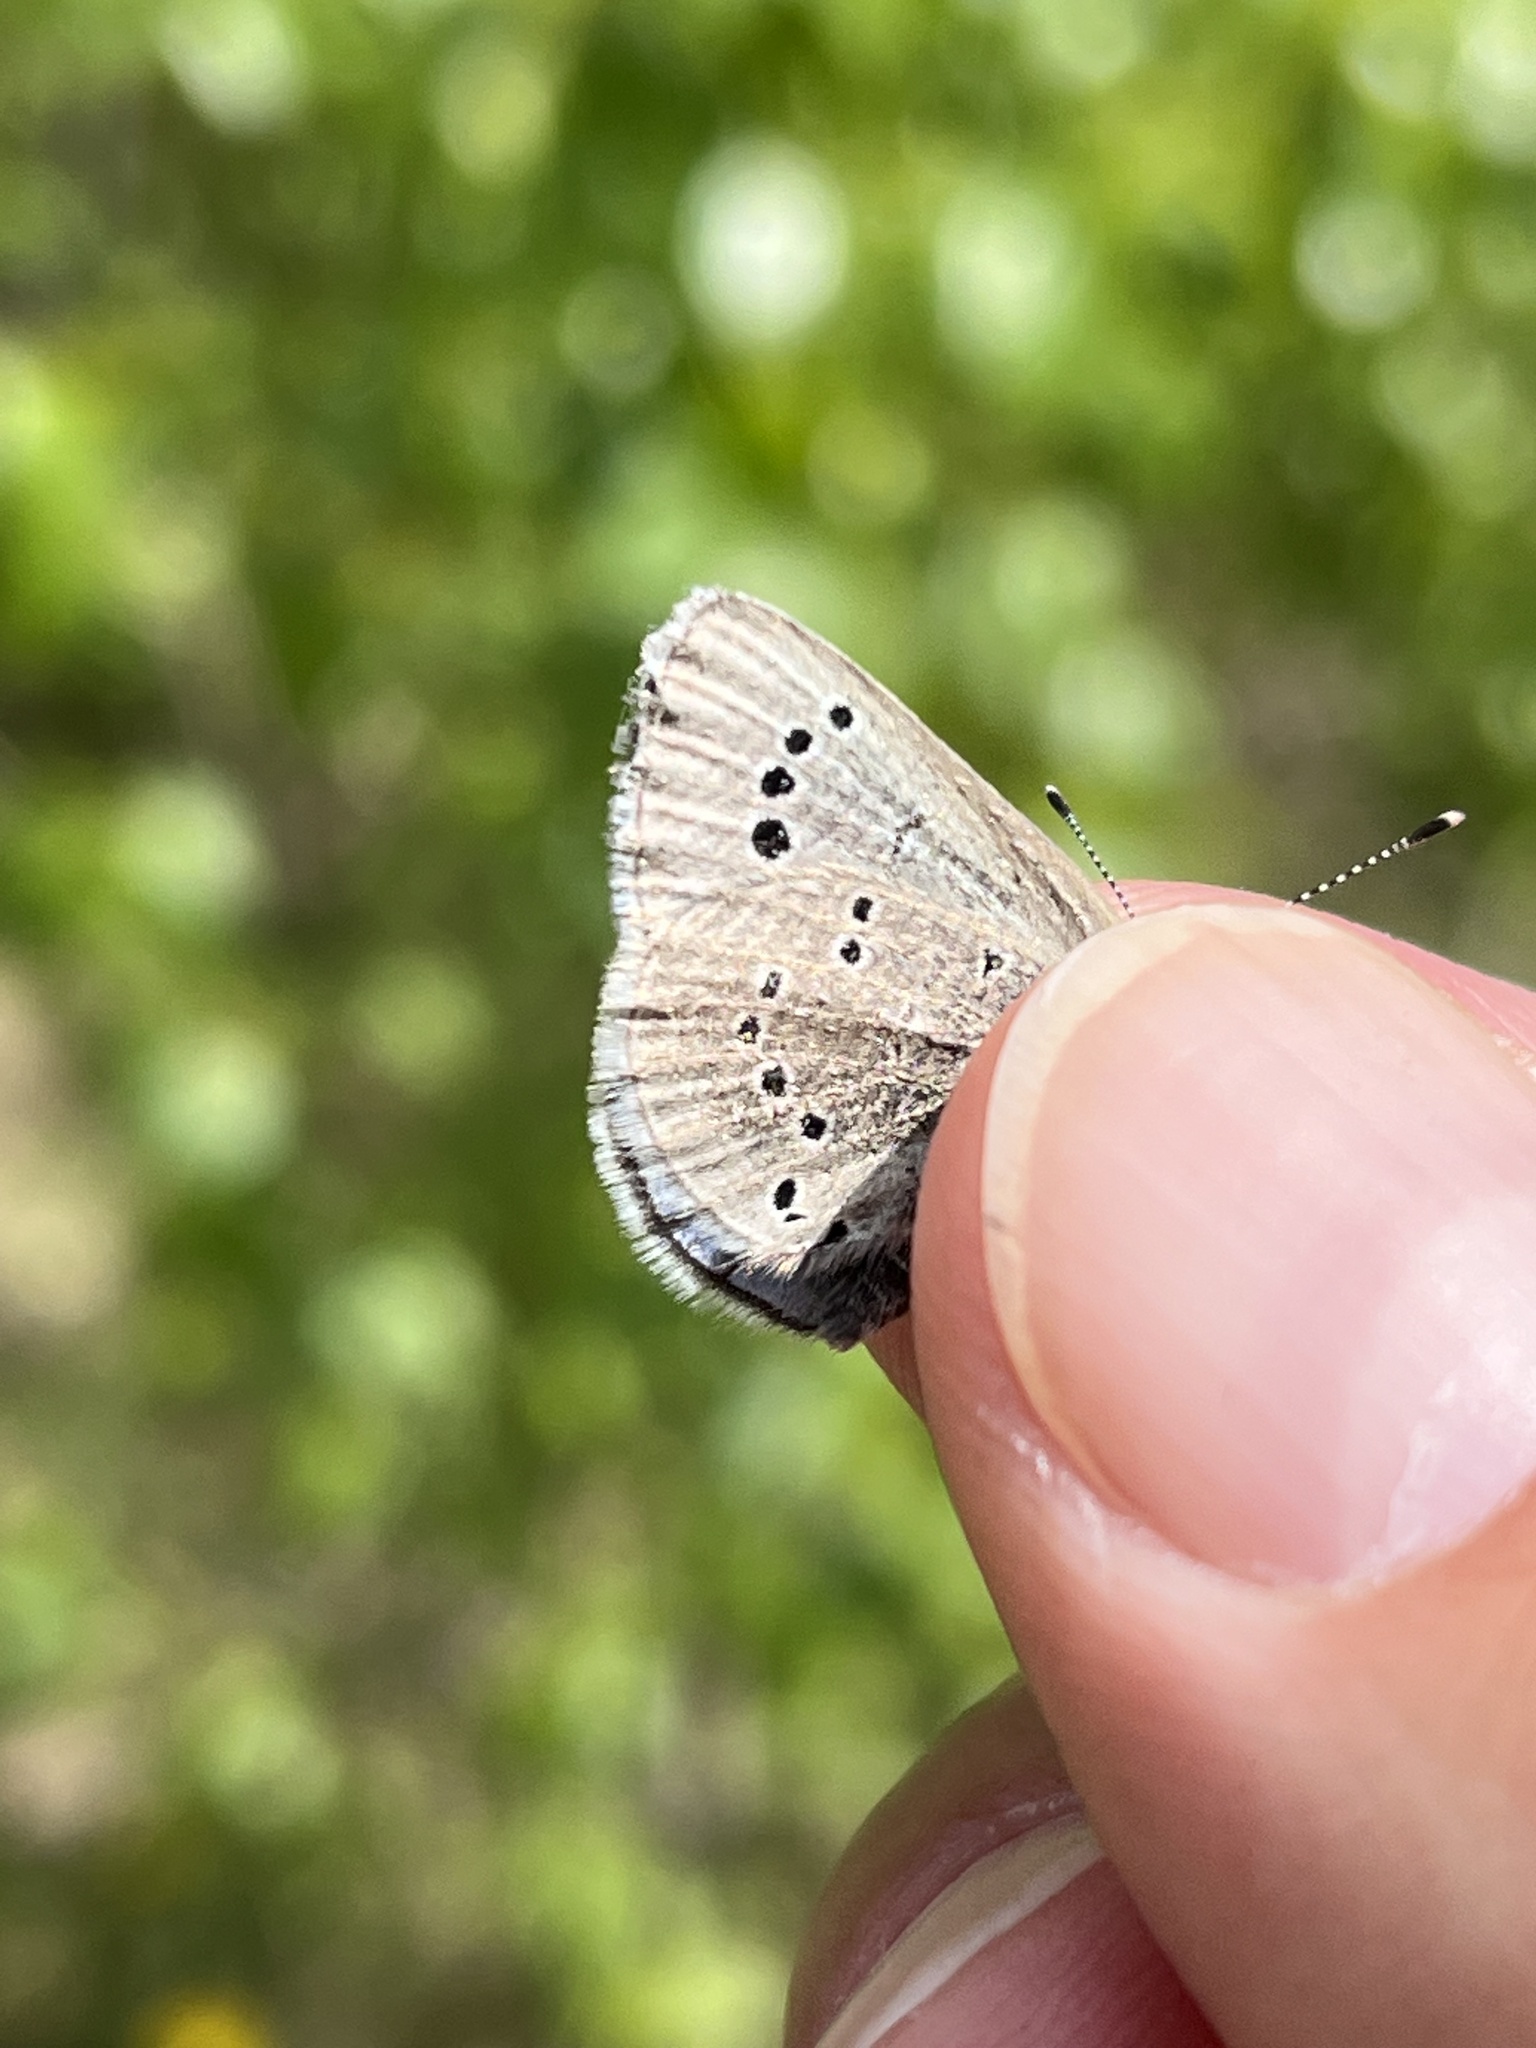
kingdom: Animalia
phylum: Arthropoda
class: Insecta
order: Lepidoptera
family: Lycaenidae
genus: Glaucopsyche
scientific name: Glaucopsyche lygdamus
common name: Silvery blue
